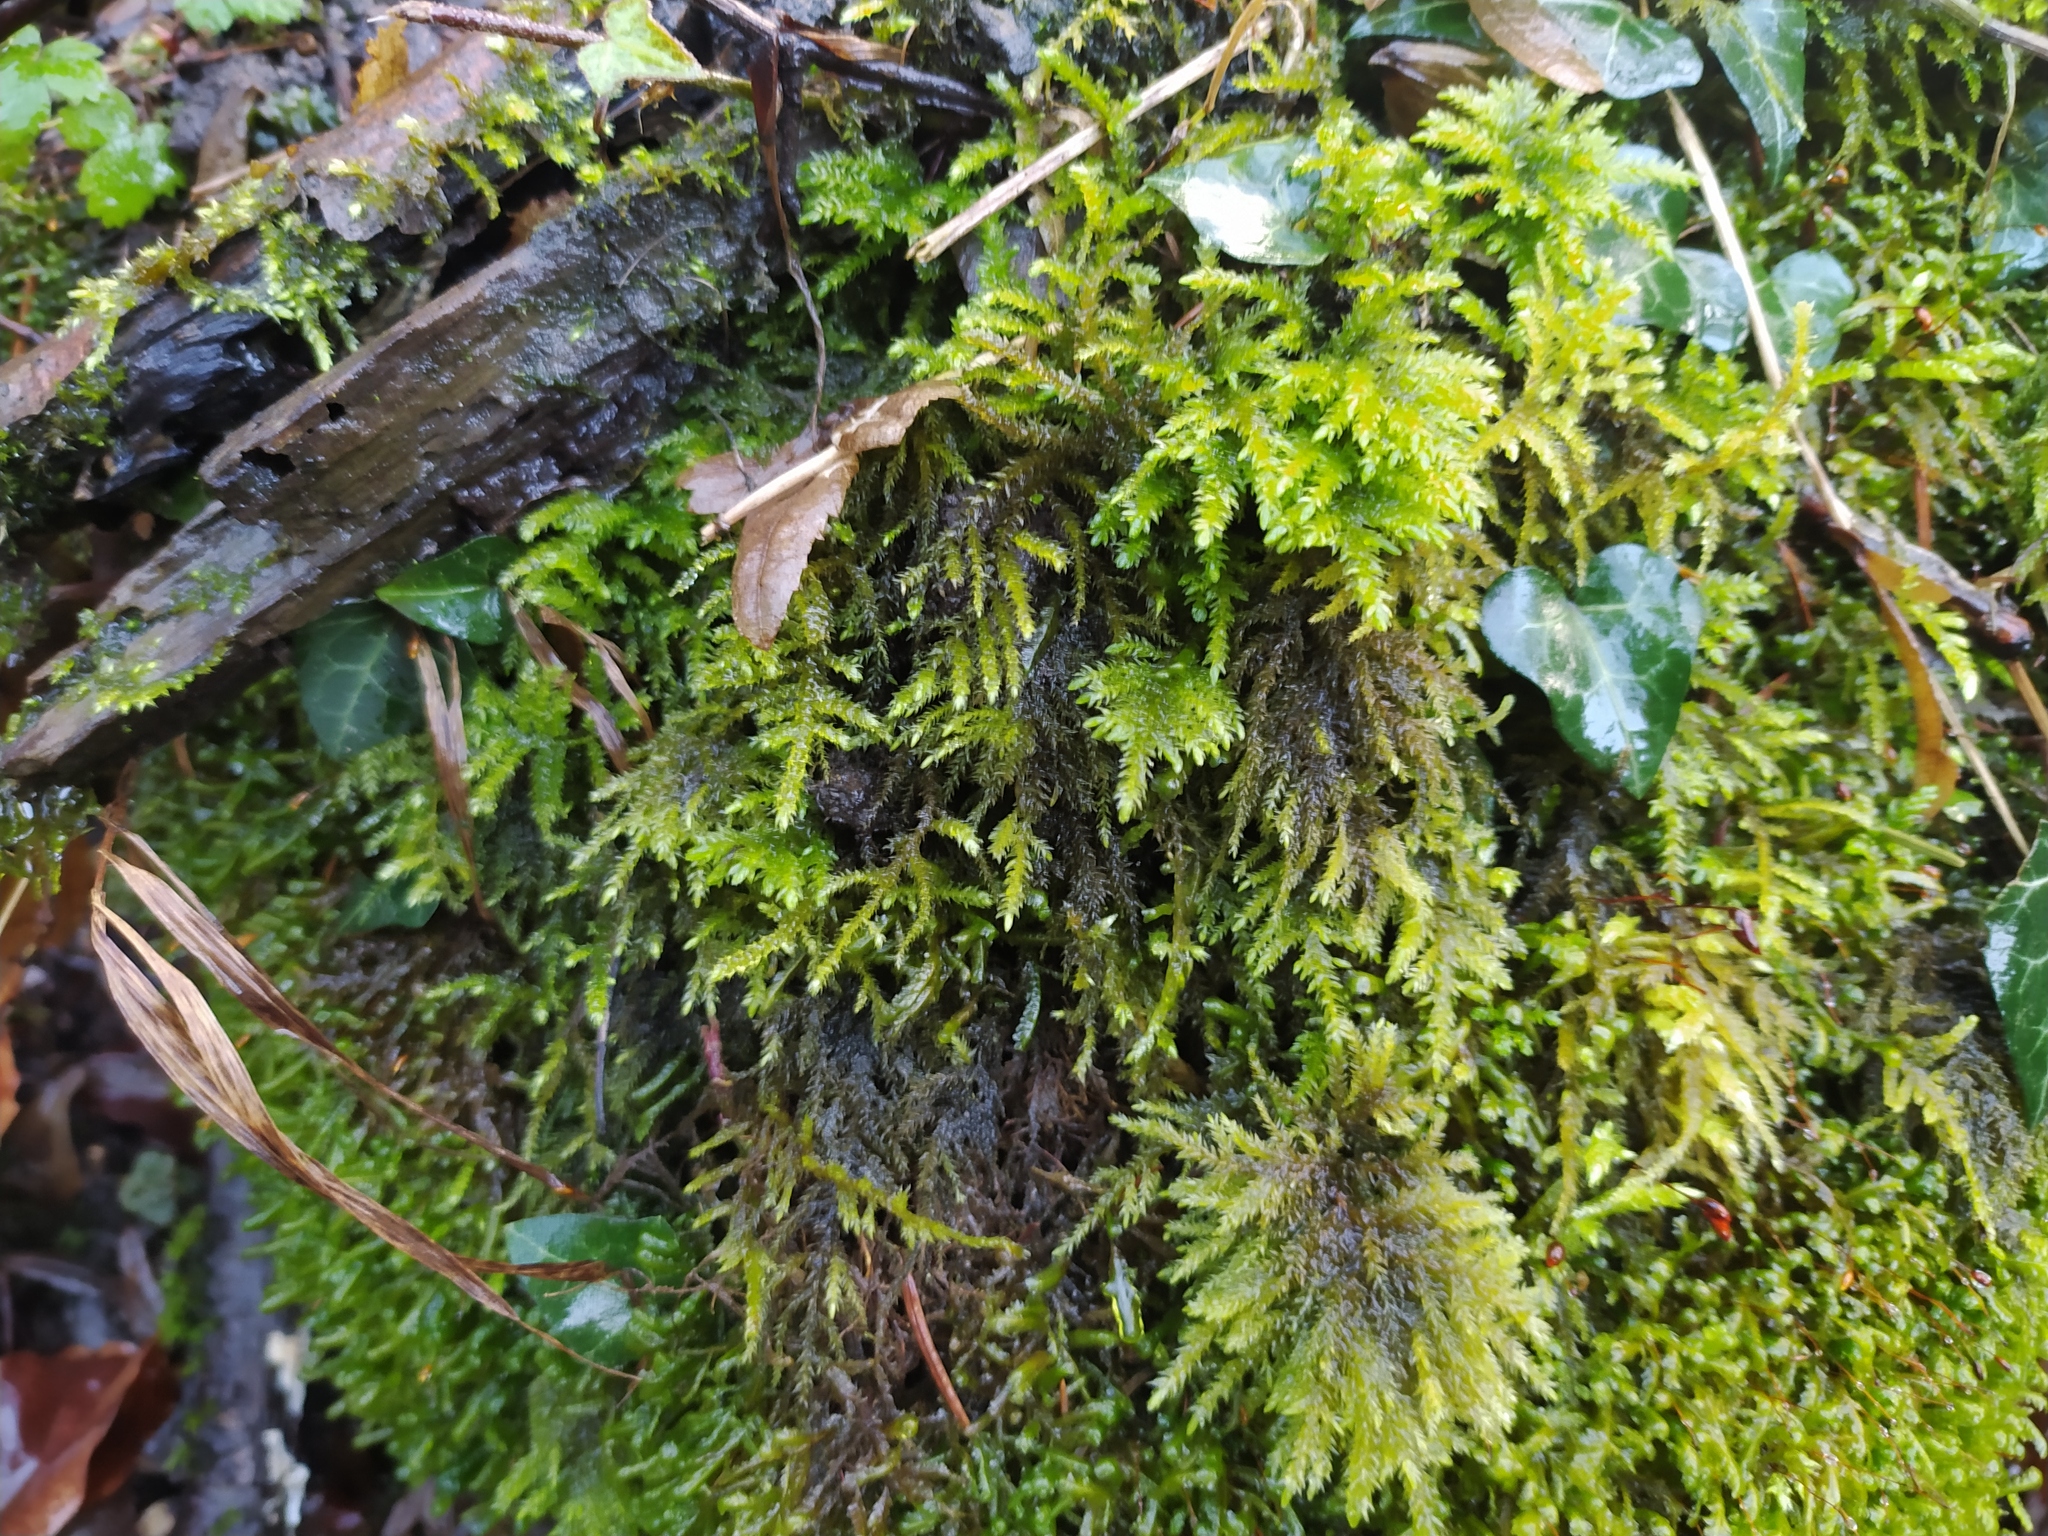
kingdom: Plantae
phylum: Bryophyta
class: Bryopsida
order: Hypnales
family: Neckeraceae
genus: Thamnobryum
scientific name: Thamnobryum alopecurum
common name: Fox-tail feather-moss
